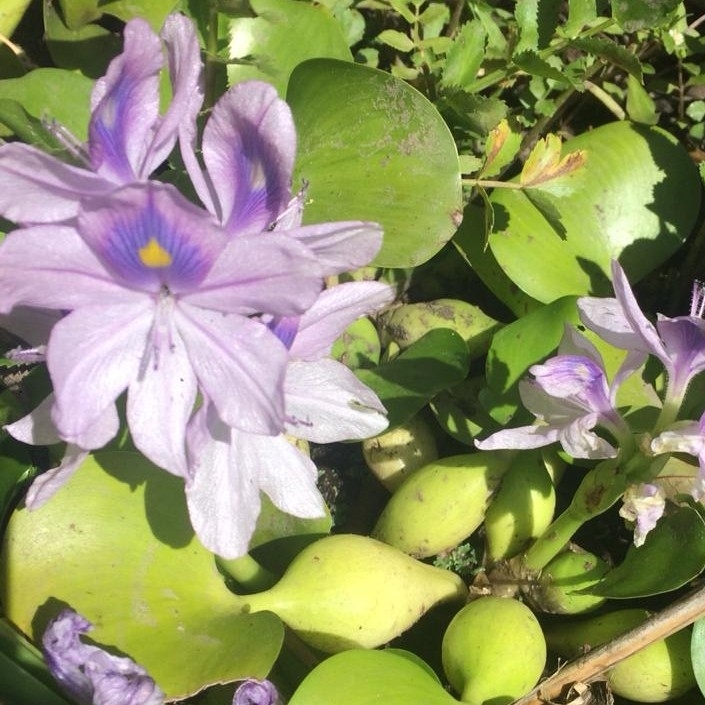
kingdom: Plantae
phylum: Tracheophyta
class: Liliopsida
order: Commelinales
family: Pontederiaceae
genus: Pontederia
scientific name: Pontederia crassipes
